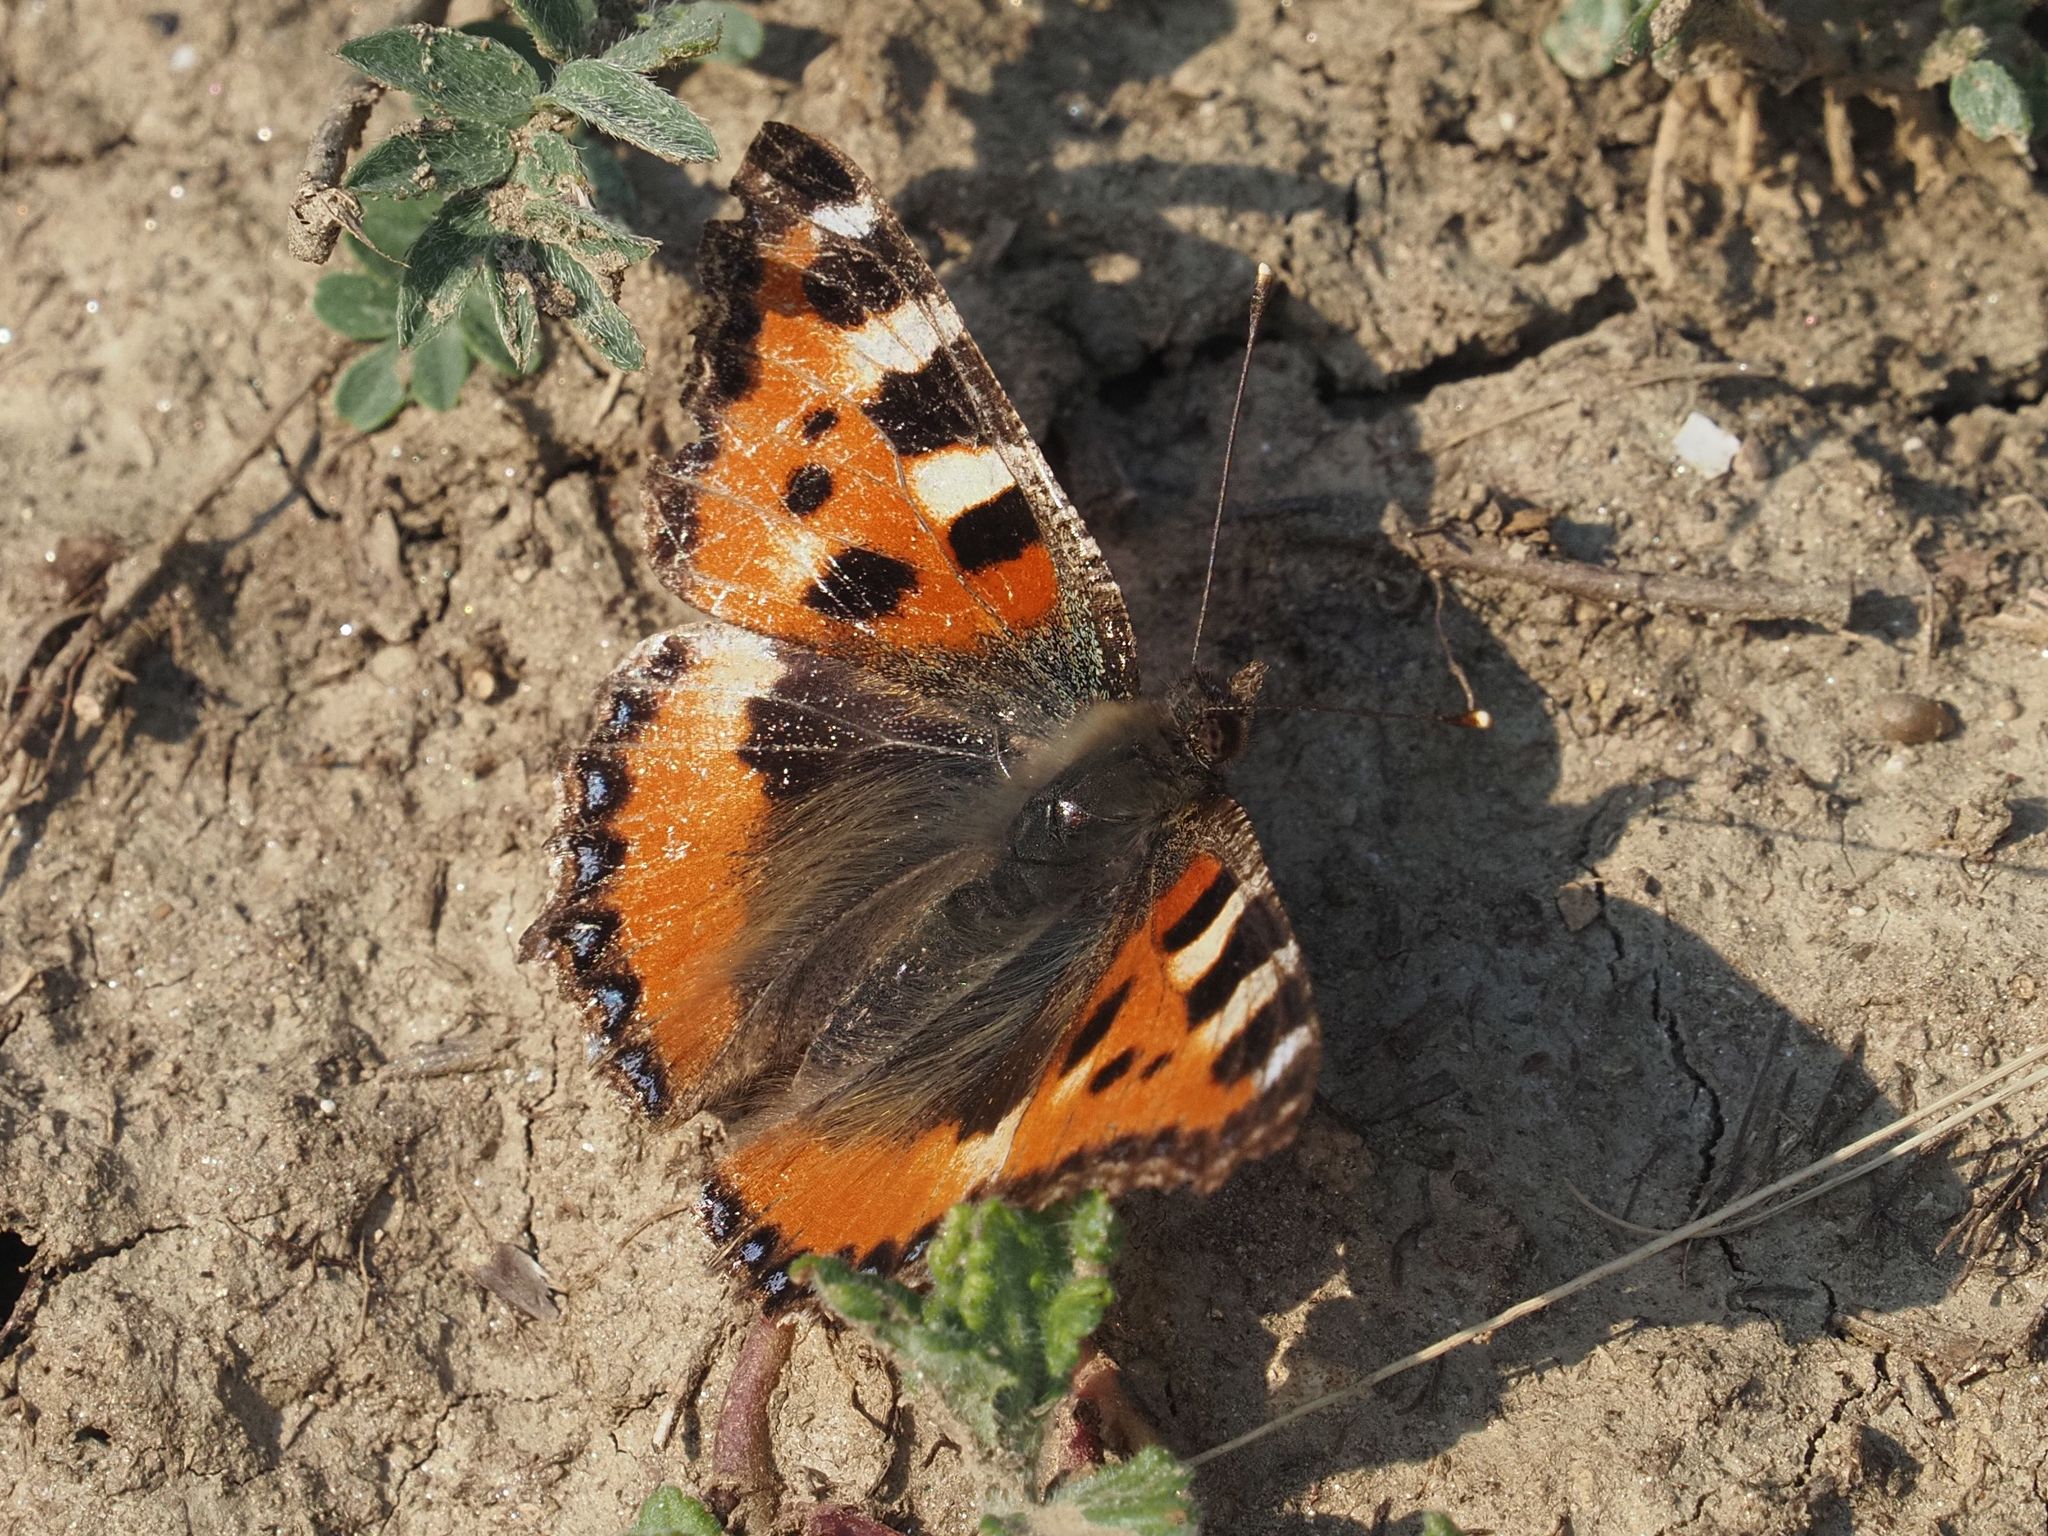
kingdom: Animalia
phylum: Arthropoda
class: Insecta
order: Lepidoptera
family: Nymphalidae
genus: Aglais
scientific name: Aglais urticae
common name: Small tortoiseshell
